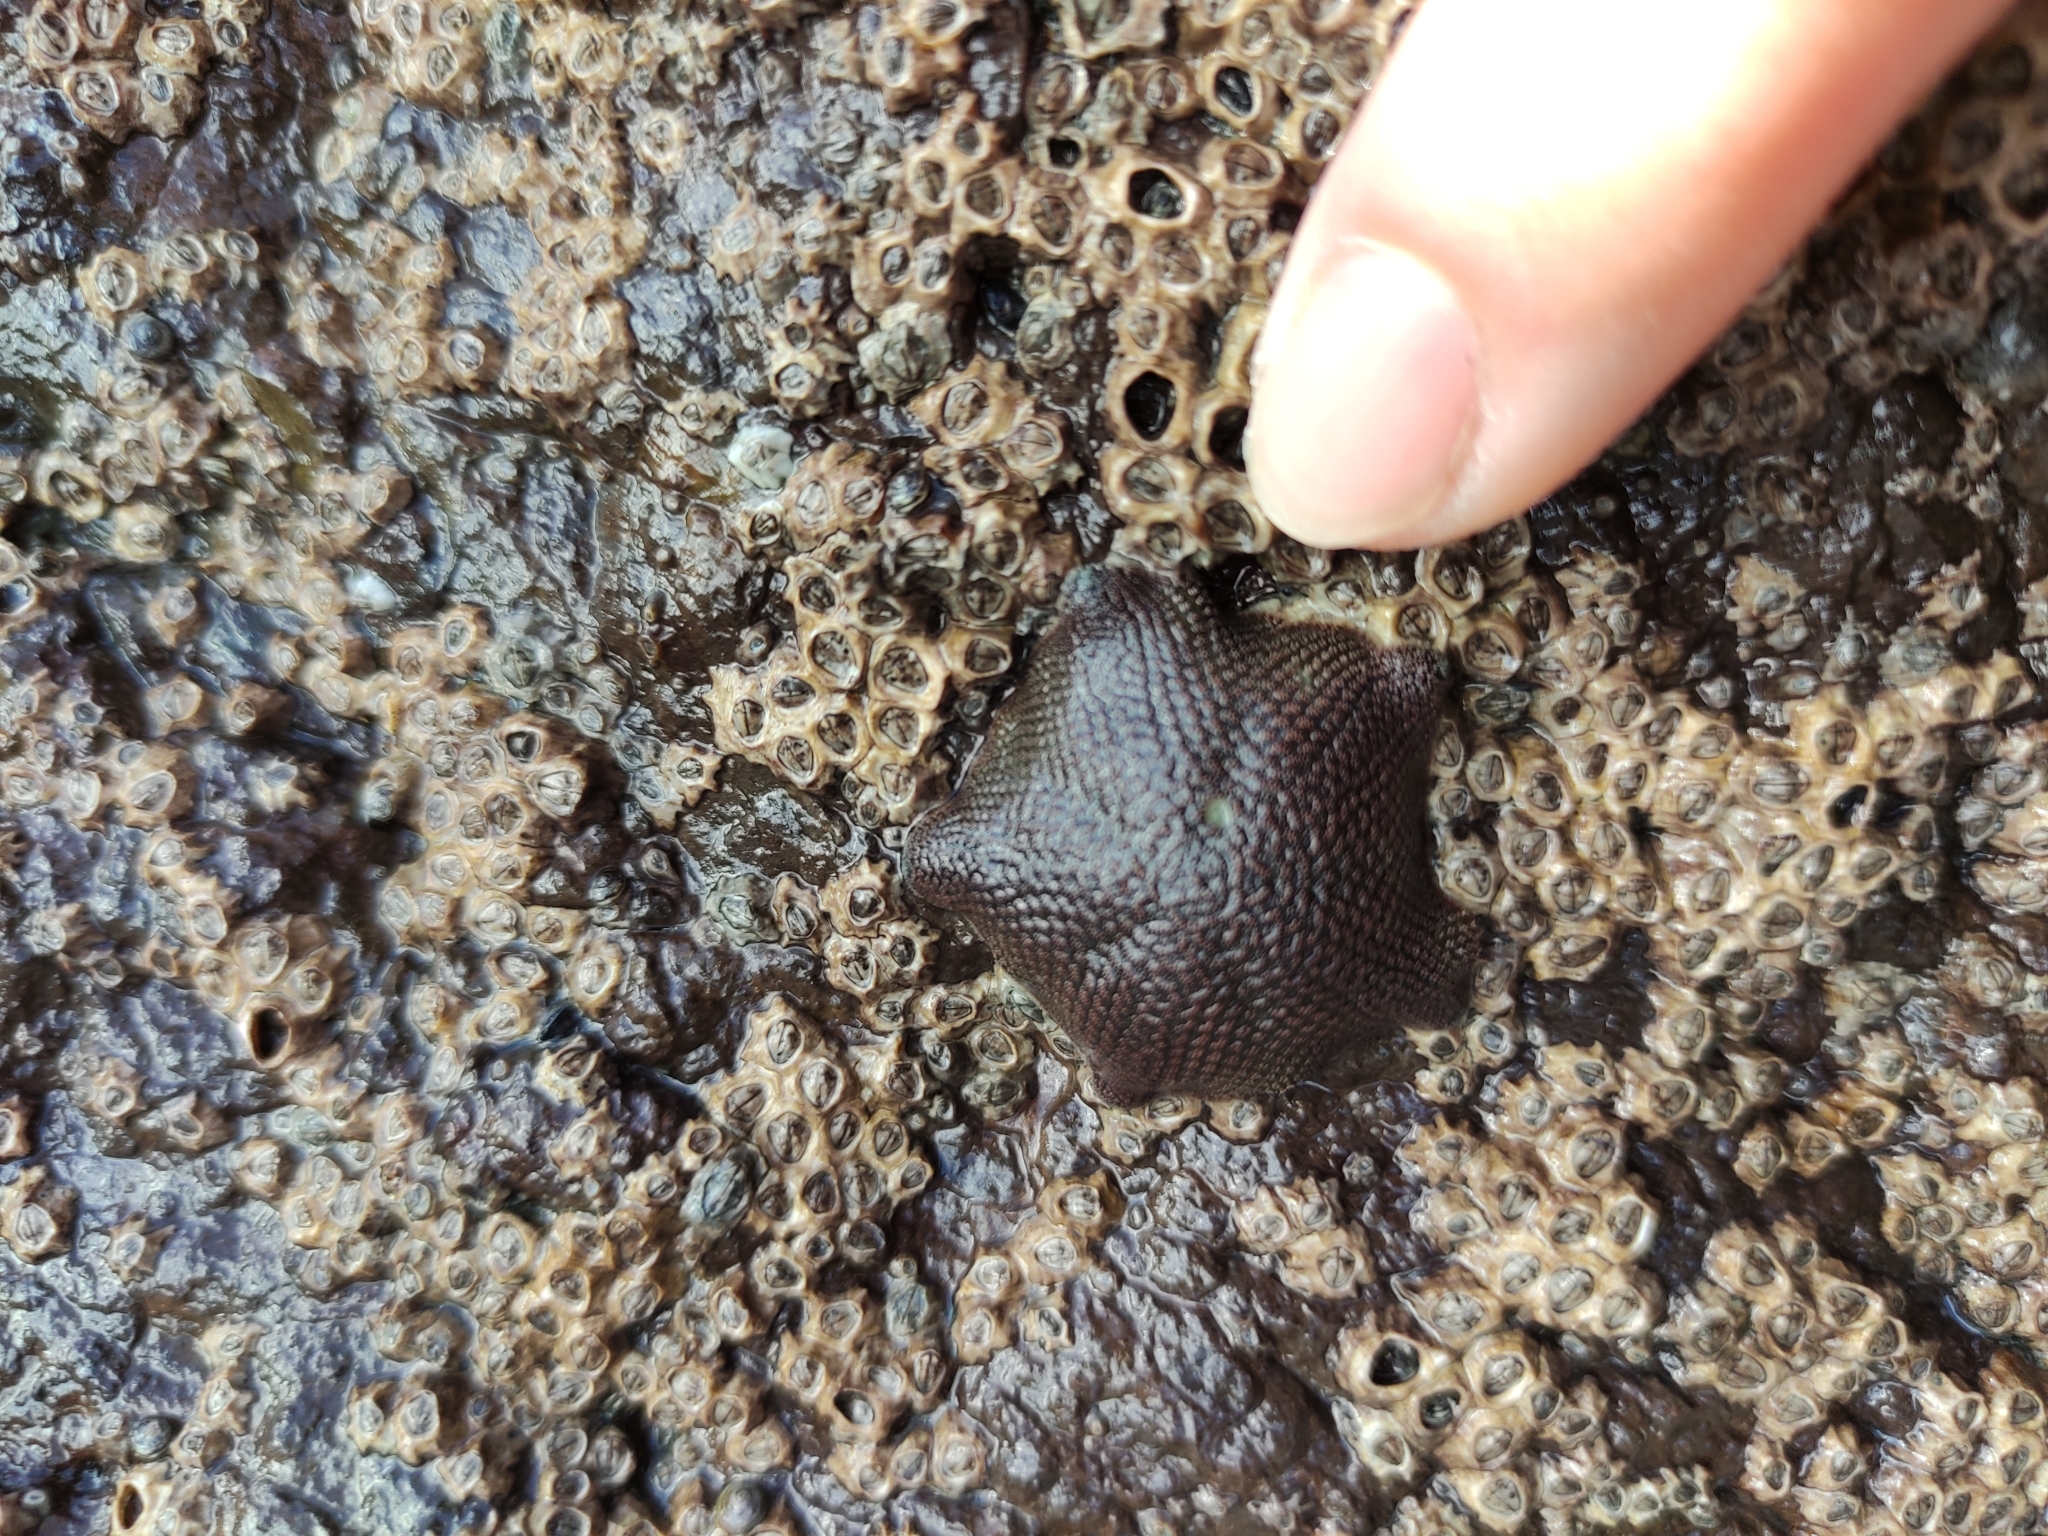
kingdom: Animalia
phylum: Echinodermata
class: Asteroidea
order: Valvatida
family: Asterinidae
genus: Patiriella
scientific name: Patiriella regularis
